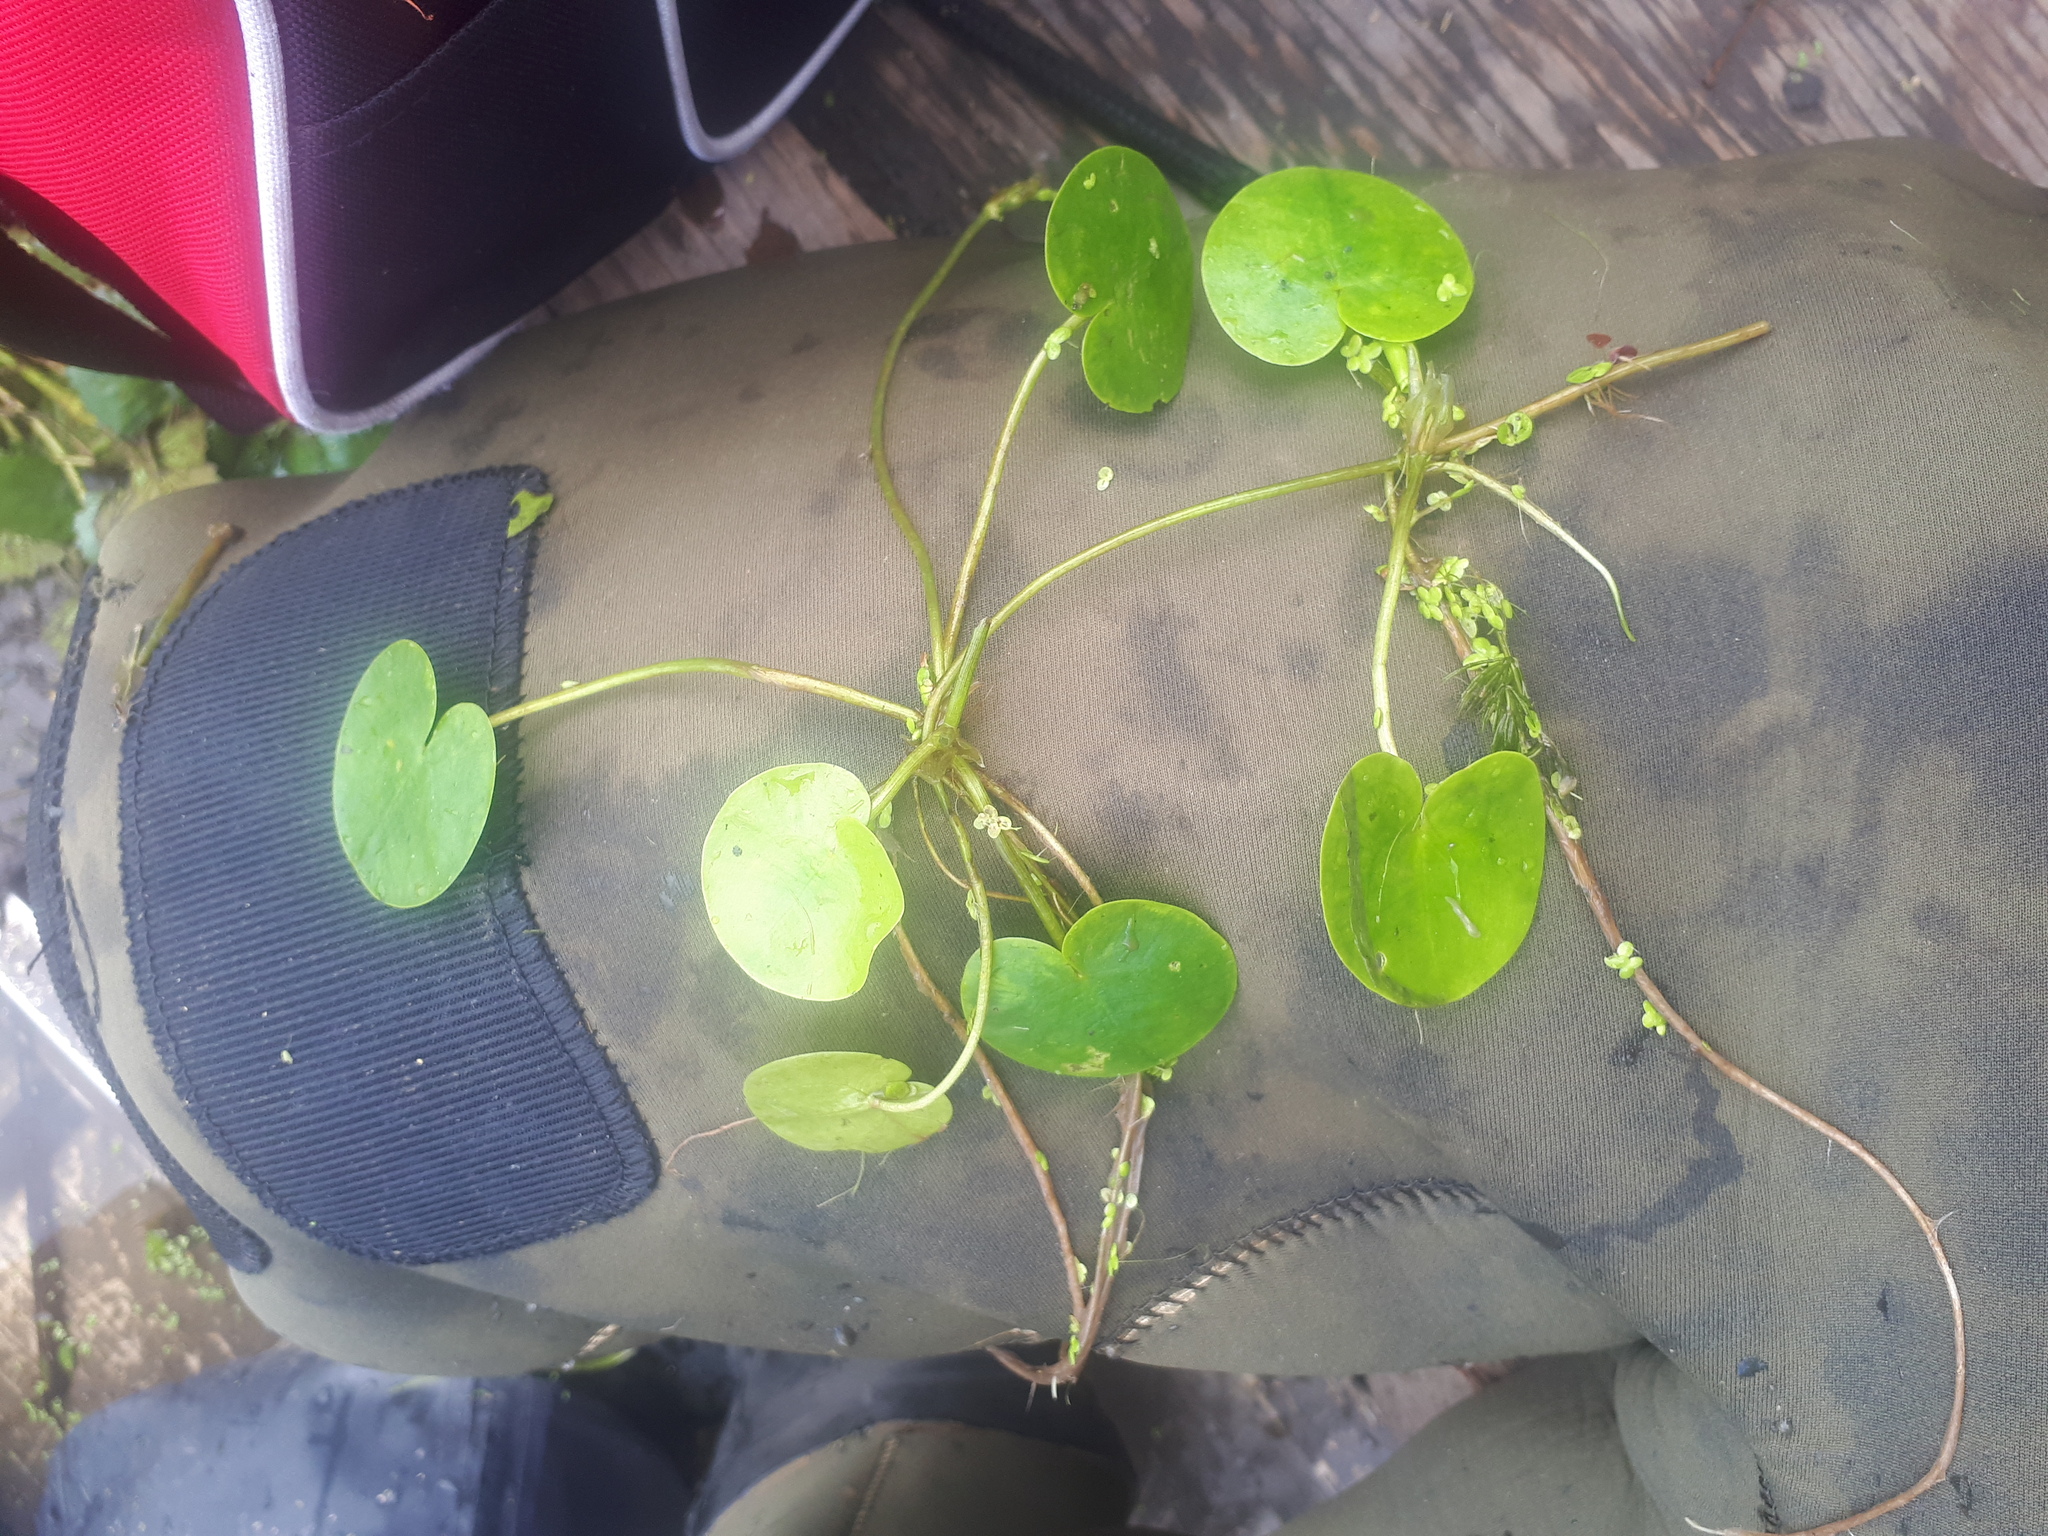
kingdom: Plantae
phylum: Tracheophyta
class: Liliopsida
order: Alismatales
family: Hydrocharitaceae
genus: Hydrocharis
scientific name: Hydrocharis morsus-ranae
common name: Frogbit
